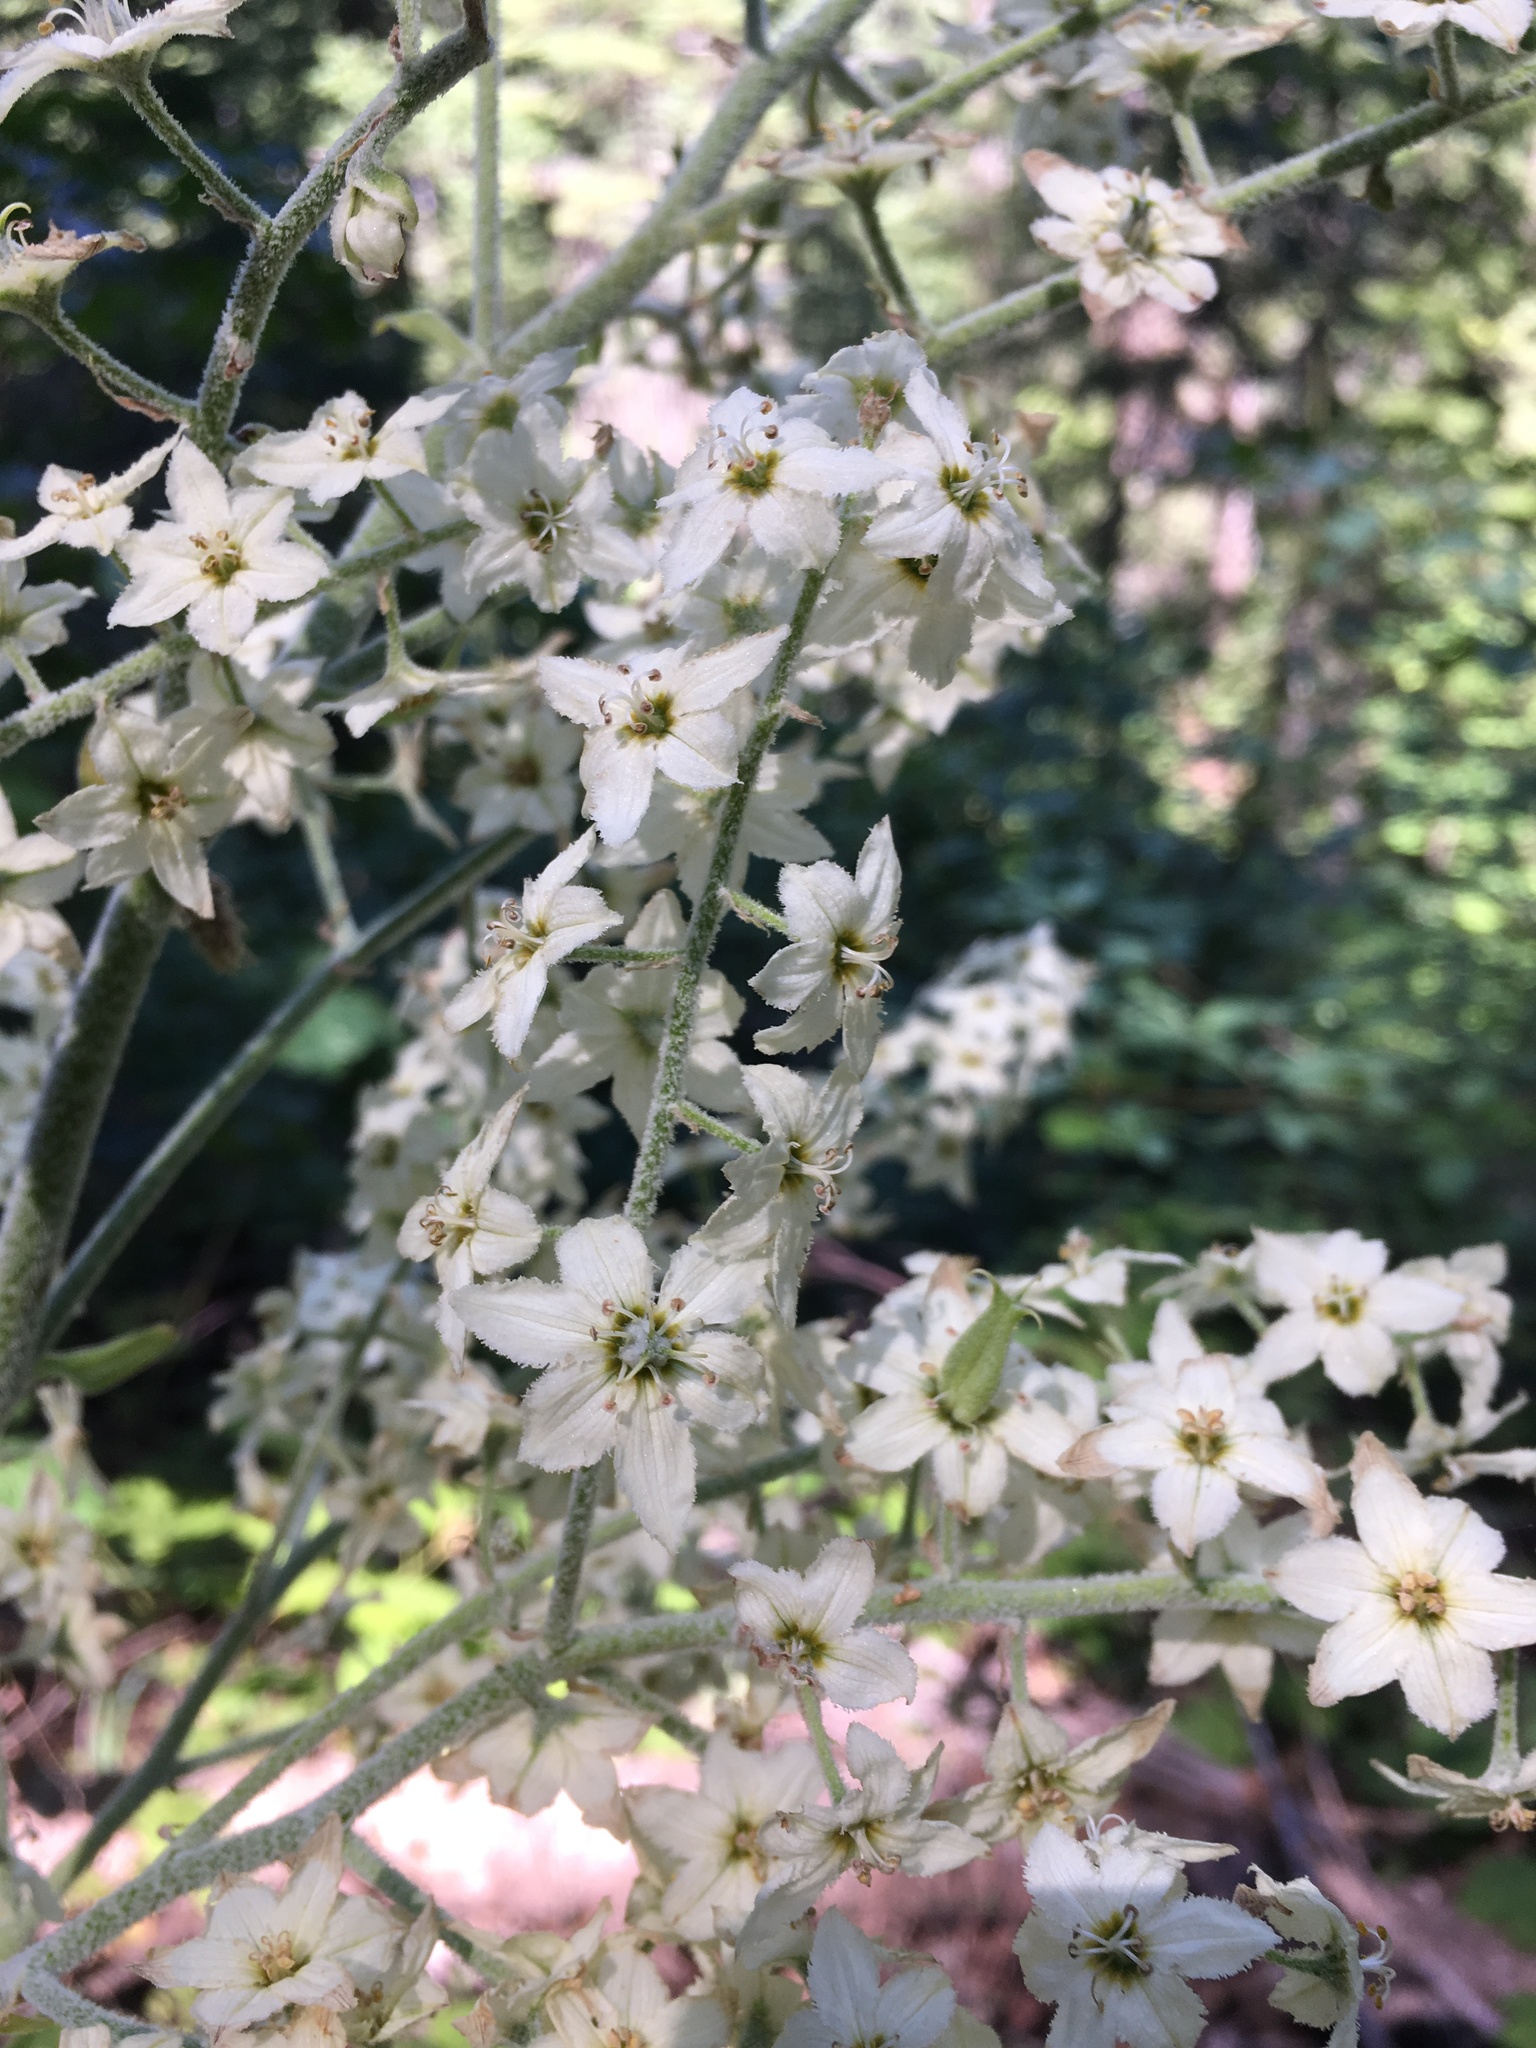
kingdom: Plantae
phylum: Tracheophyta
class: Liliopsida
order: Liliales
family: Melanthiaceae
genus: Veratrum
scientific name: Veratrum insolitum
